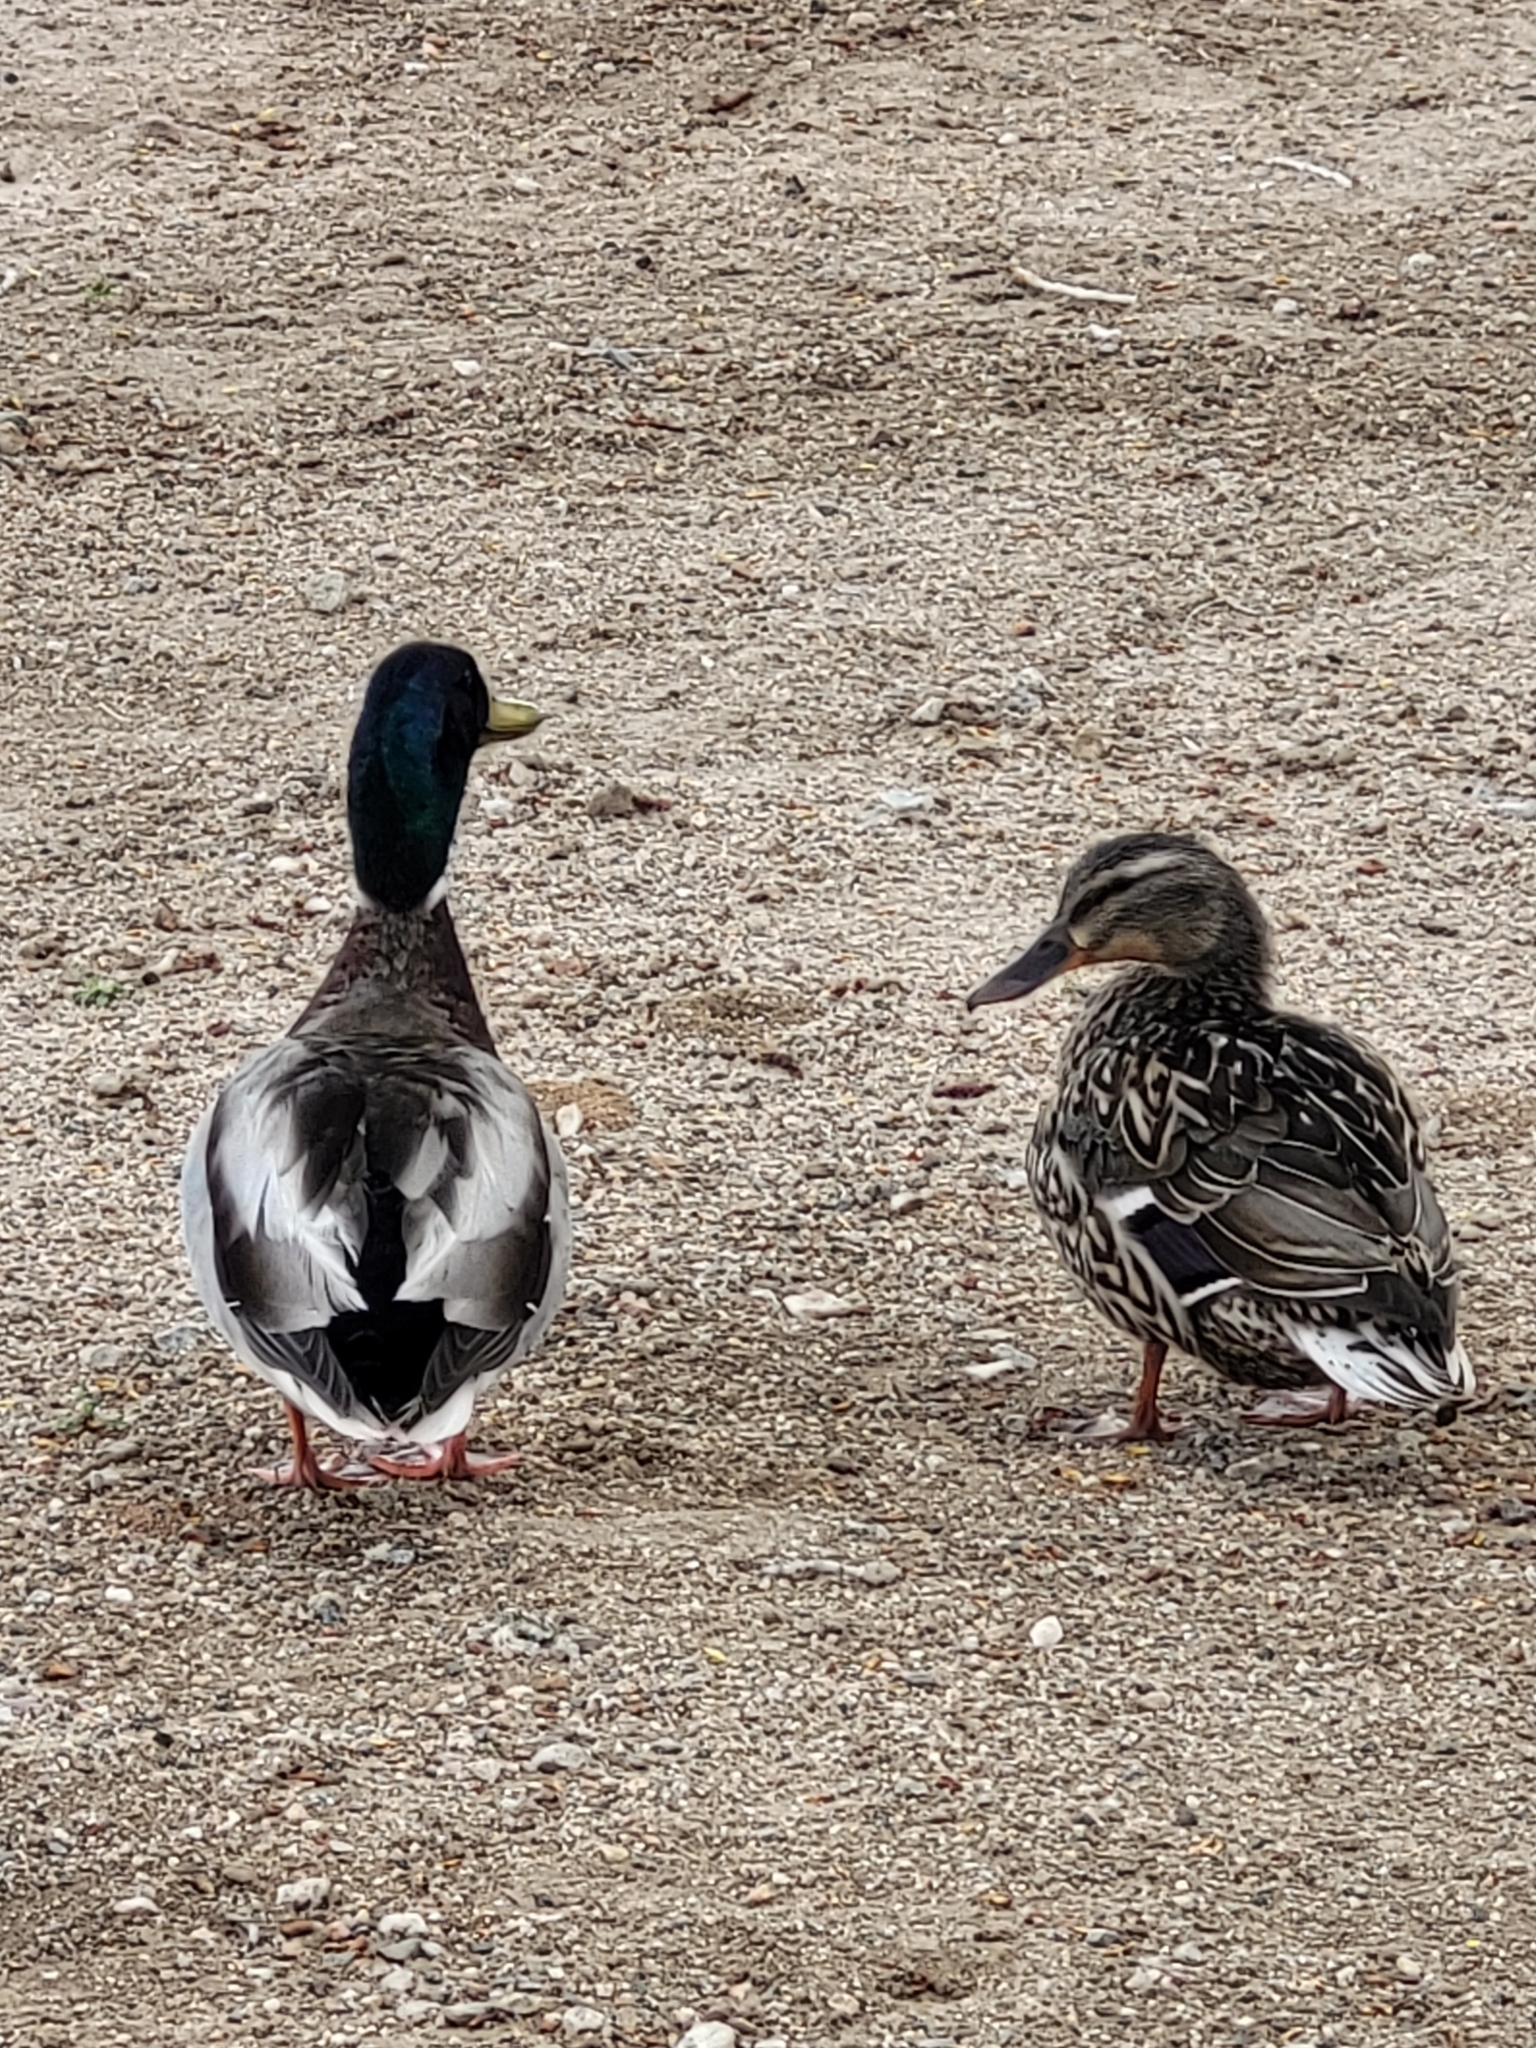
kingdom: Animalia
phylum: Chordata
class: Aves
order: Anseriformes
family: Anatidae
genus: Anas
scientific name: Anas platyrhynchos
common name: Mallard
